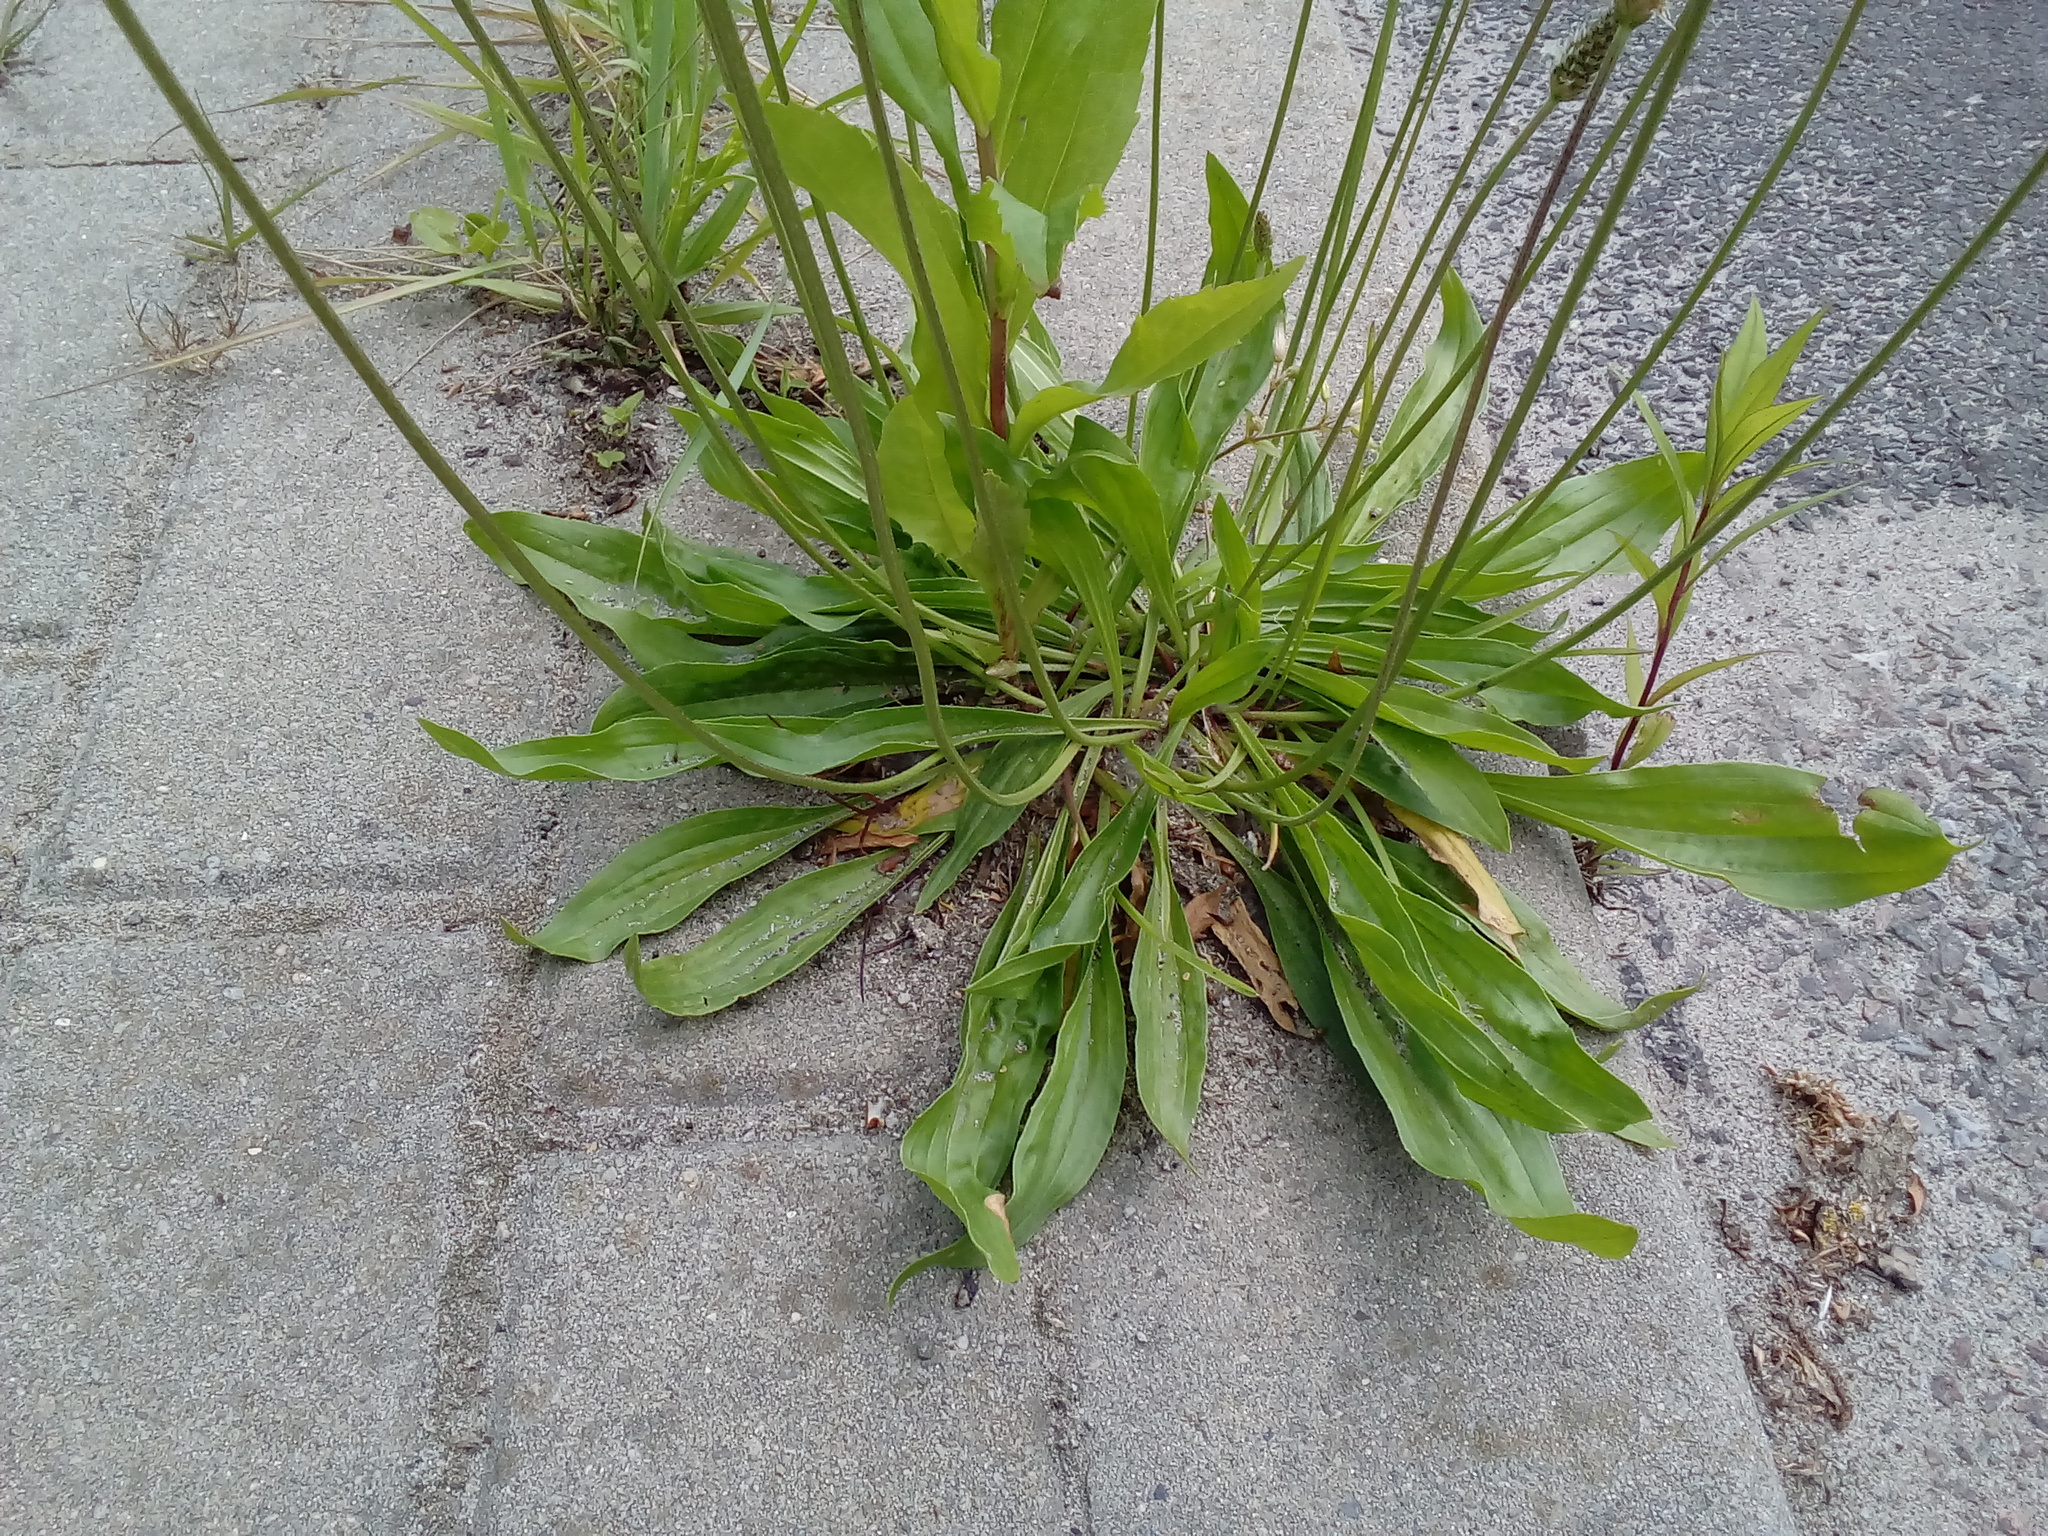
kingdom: Plantae
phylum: Tracheophyta
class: Magnoliopsida
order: Lamiales
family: Plantaginaceae
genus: Plantago
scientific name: Plantago lanceolata
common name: Ribwort plantain
